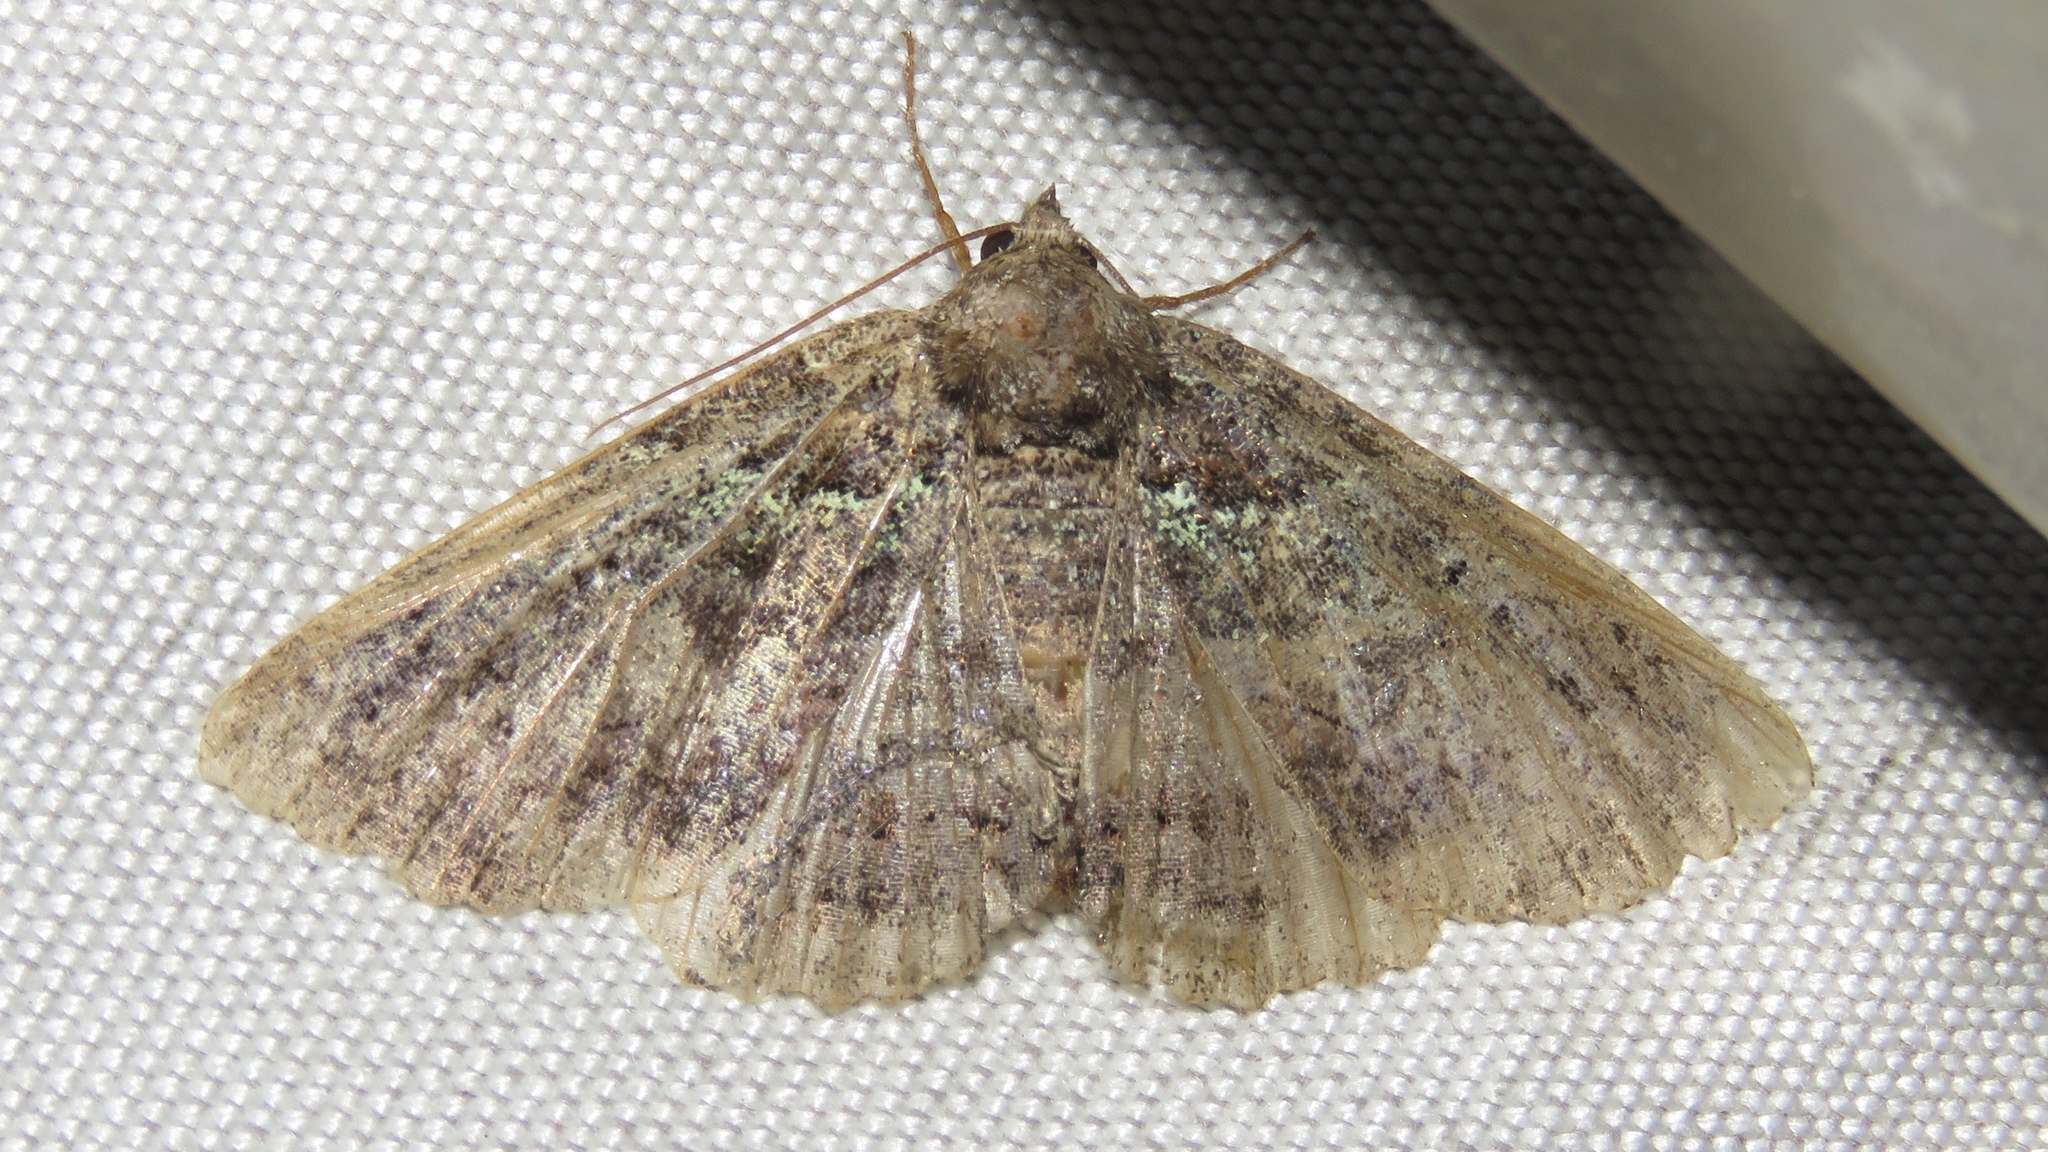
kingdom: Animalia
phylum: Arthropoda
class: Insecta
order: Lepidoptera
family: Erebidae
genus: Zale
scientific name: Zale aeruginosa
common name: Green-dusted zale moth
